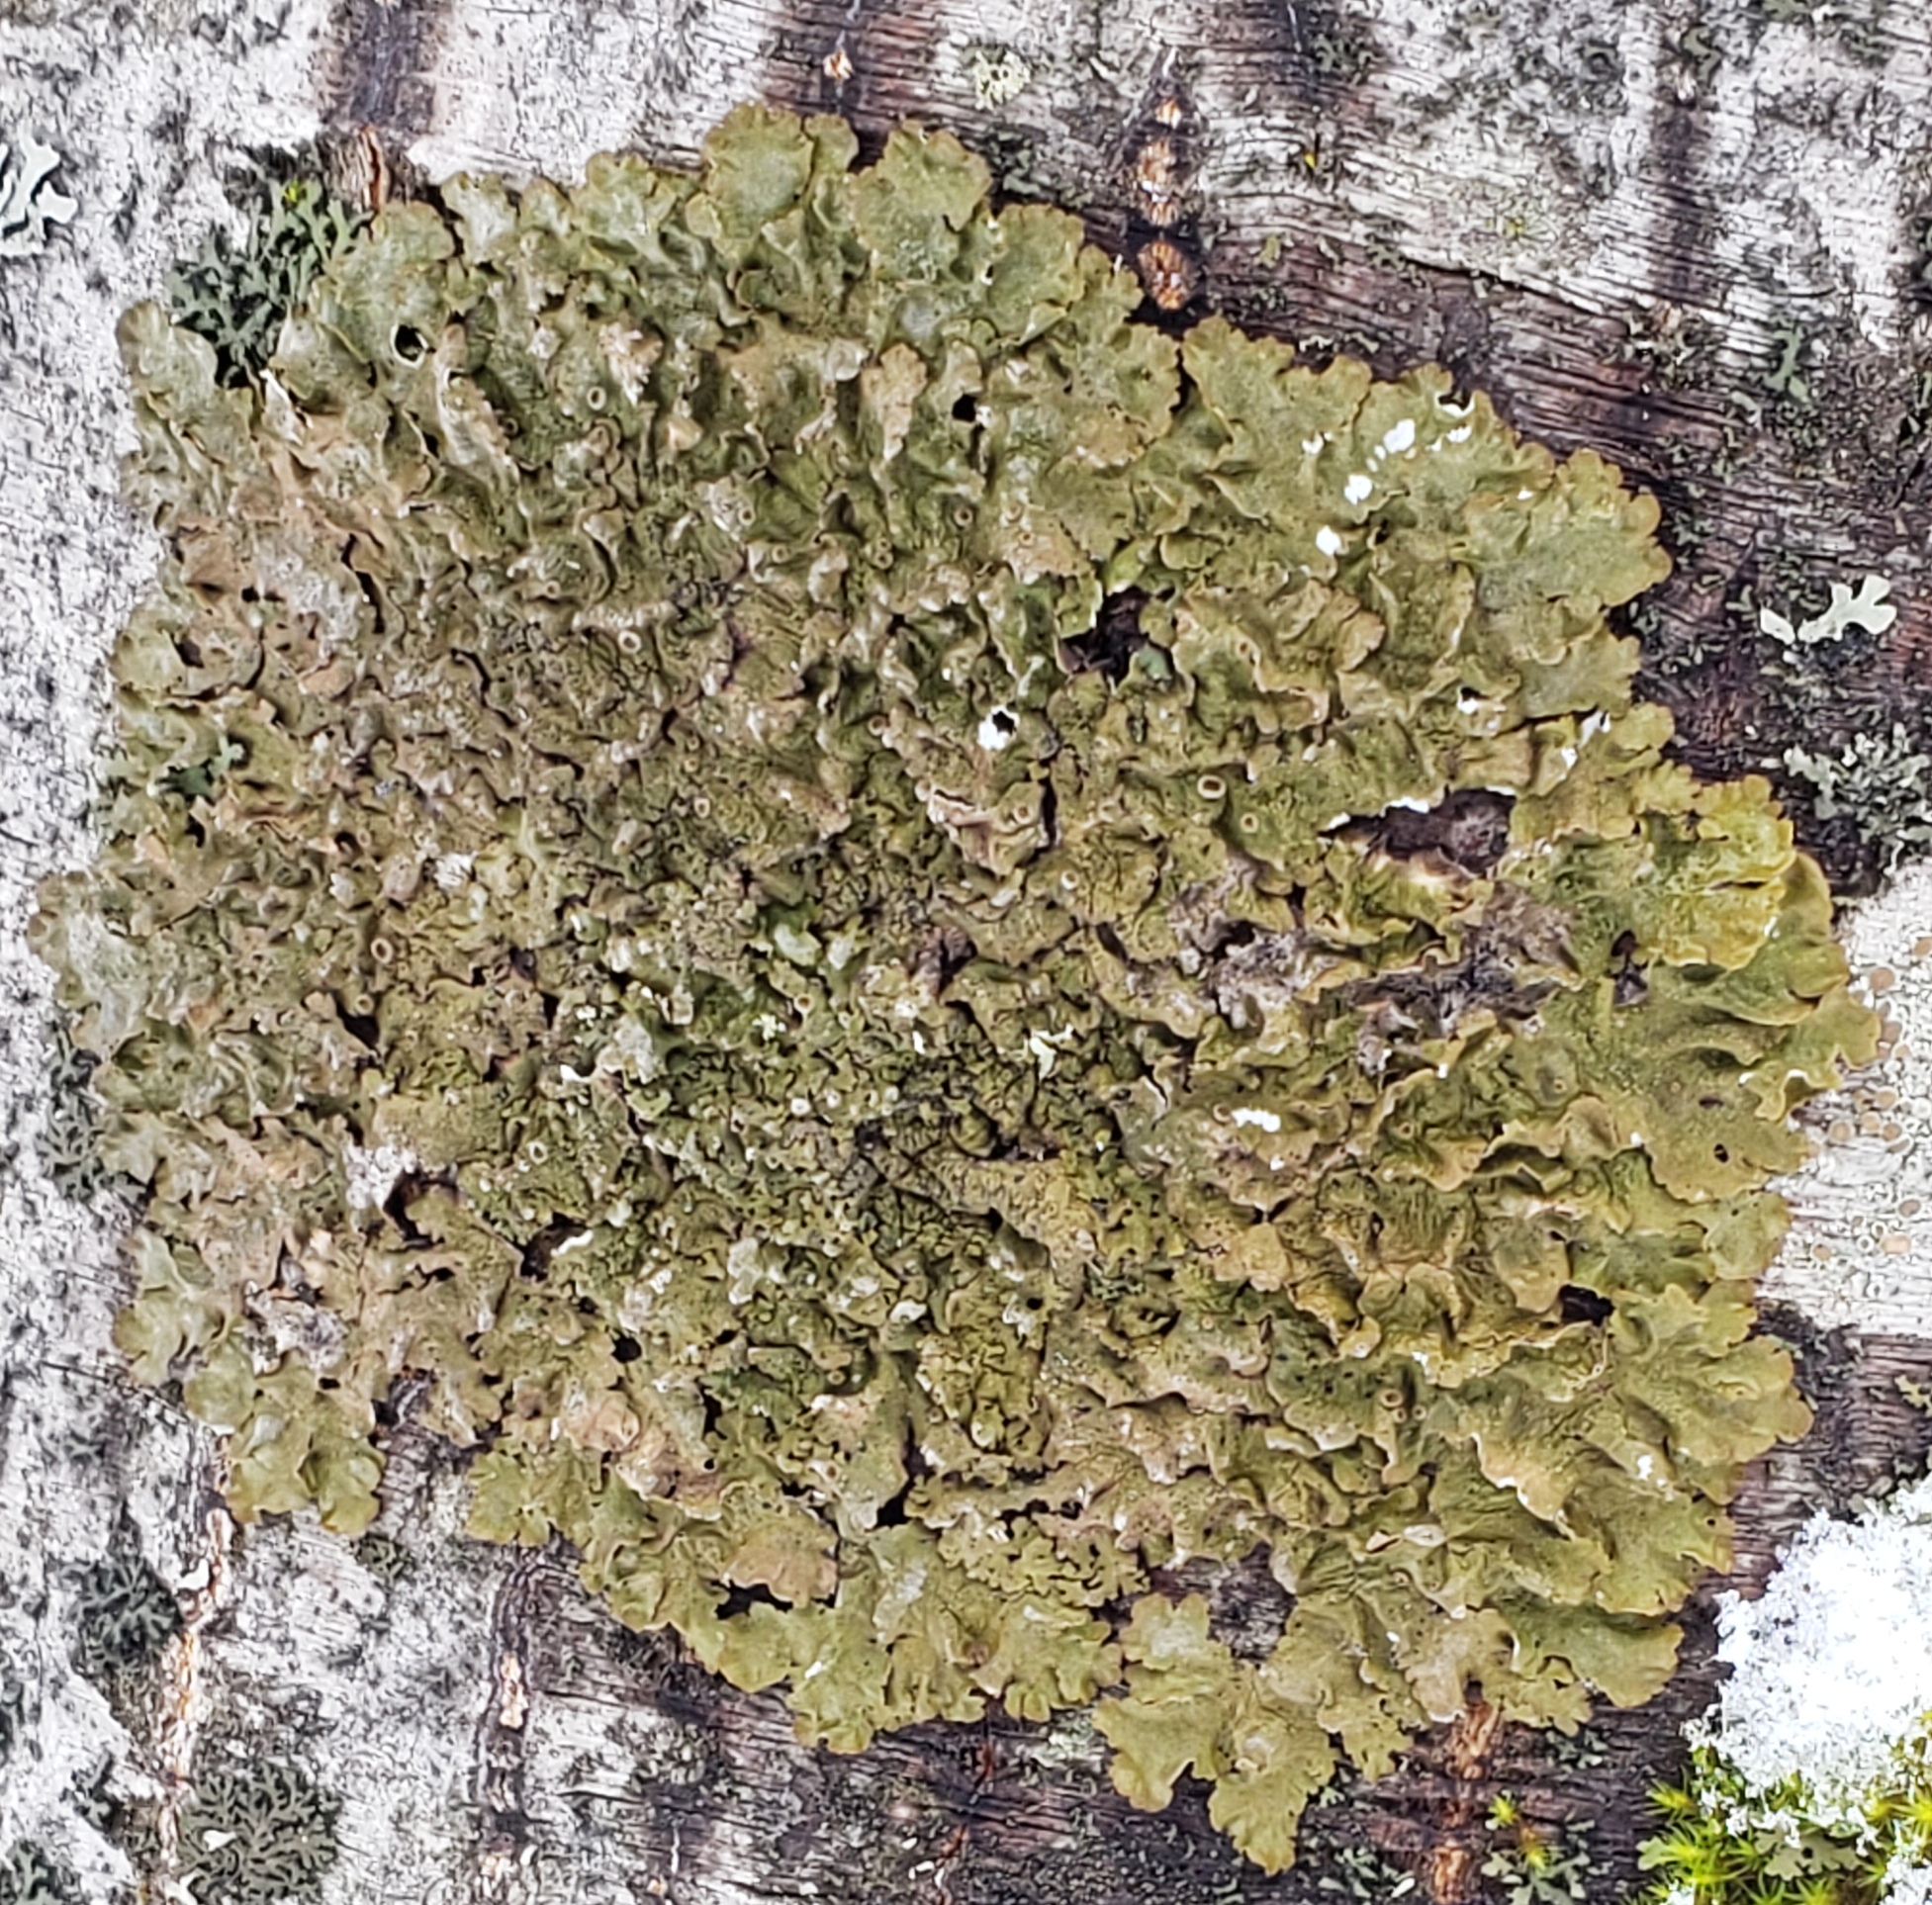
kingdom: Fungi
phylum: Ascomycota
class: Lecanoromycetes
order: Lecanorales
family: Parmeliaceae
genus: Melanelixia
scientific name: Melanelixia subaurifera
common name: Abraded camouflage lichen
